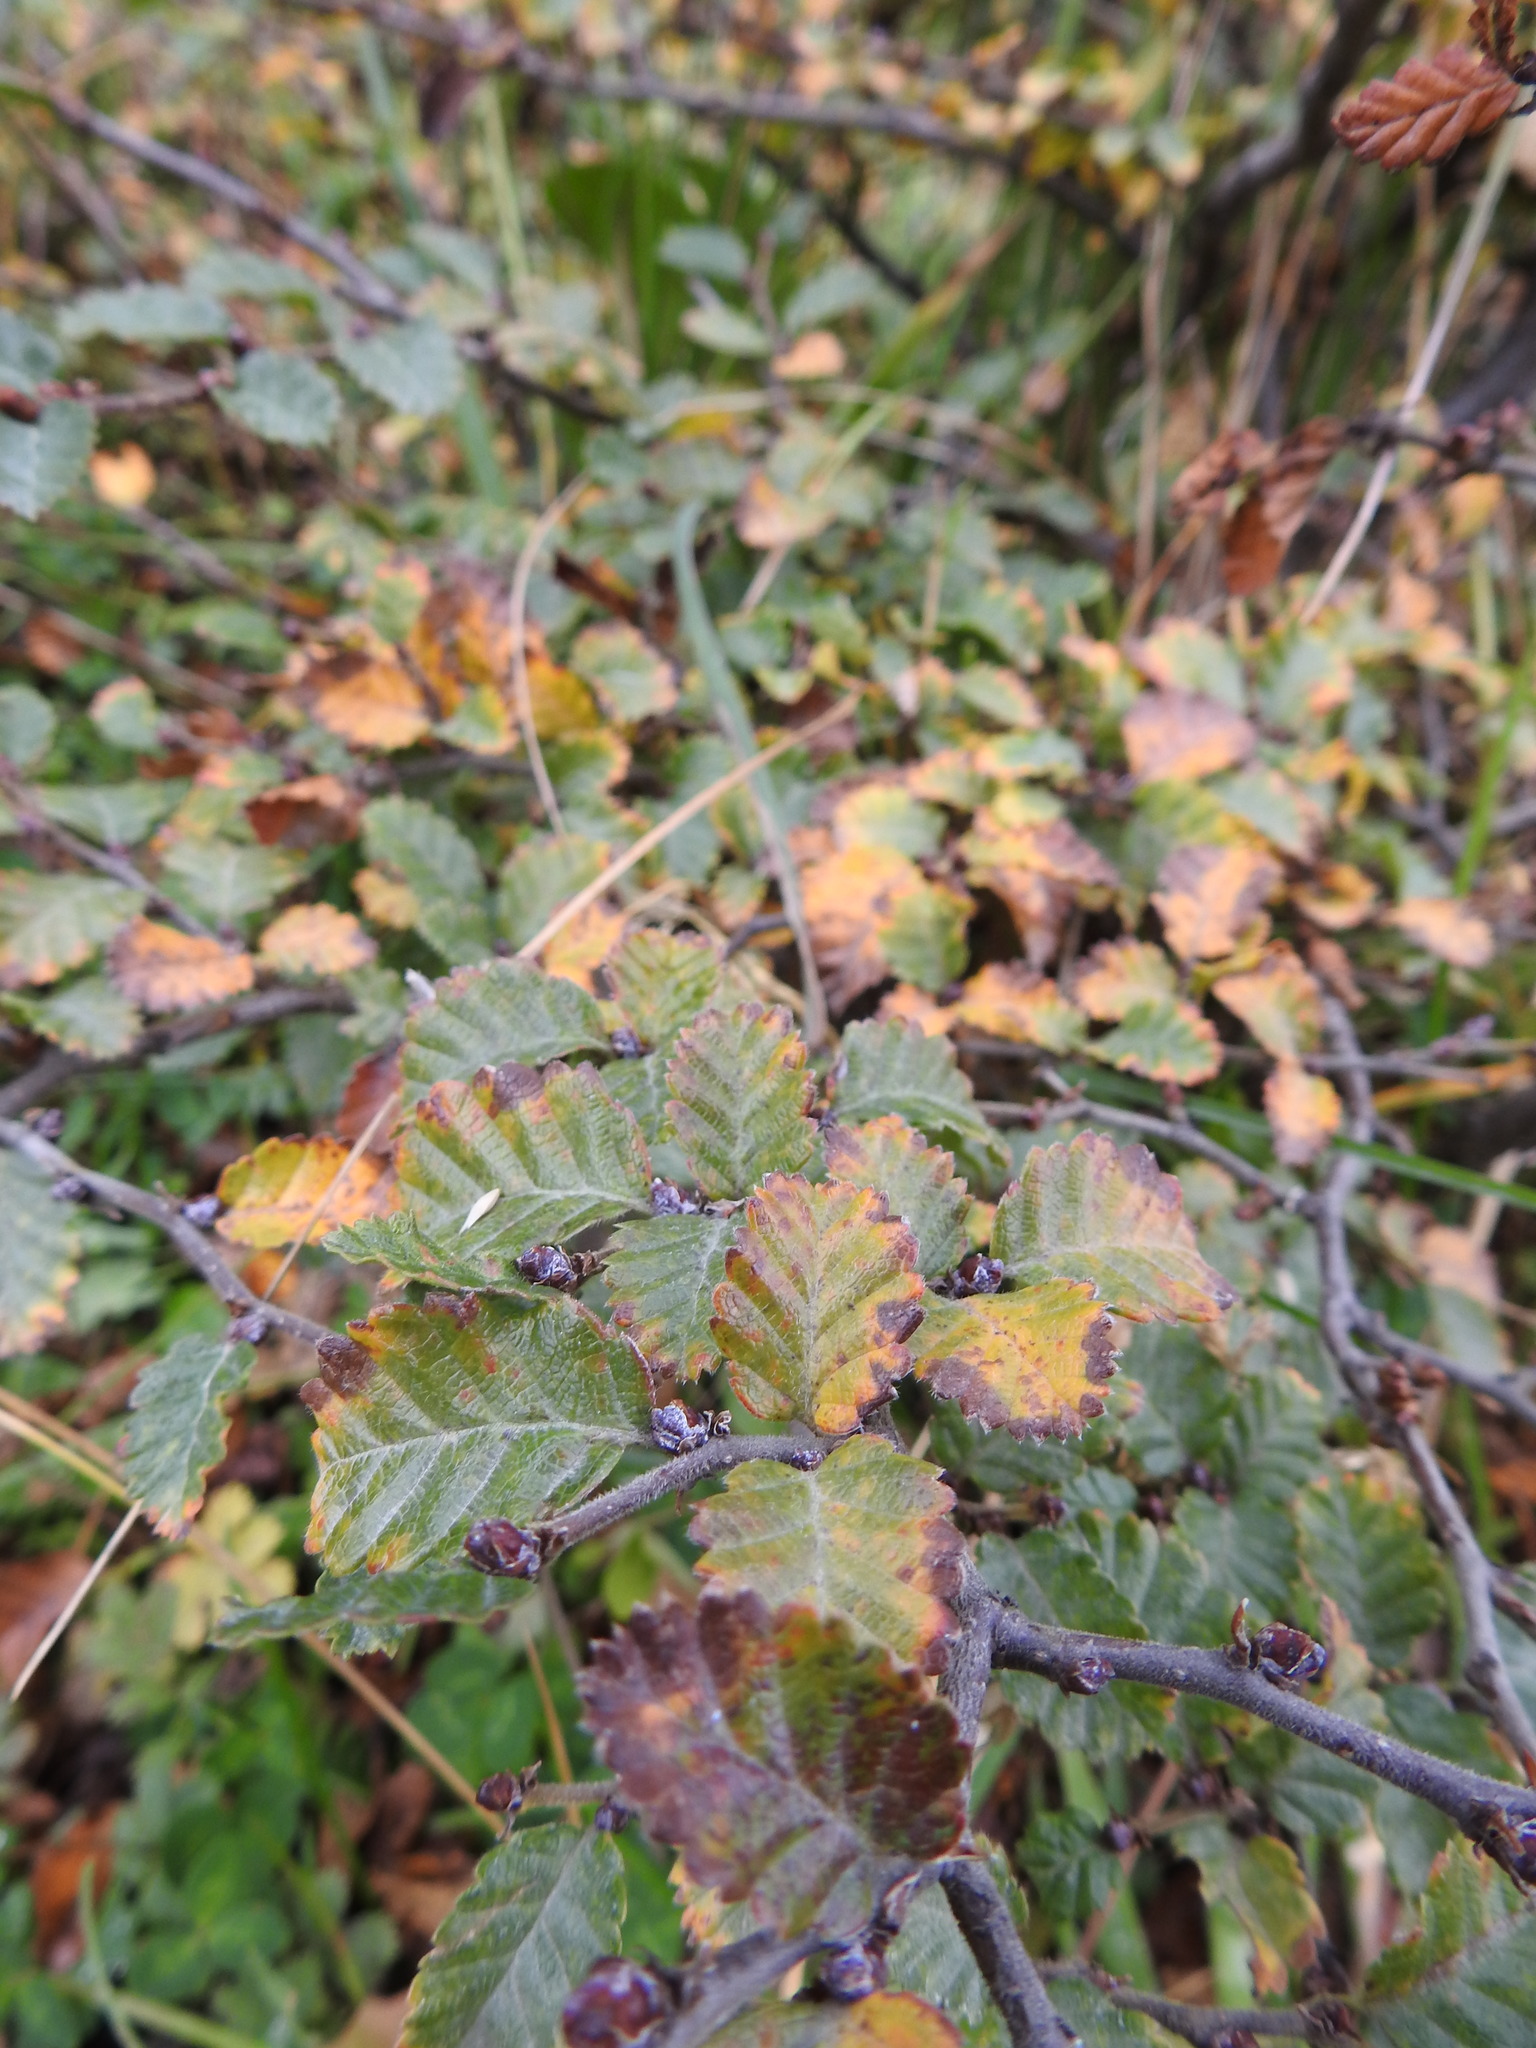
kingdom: Plantae
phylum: Tracheophyta
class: Magnoliopsida
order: Fagales
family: Nothofagaceae
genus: Nothofagus
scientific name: Nothofagus pumilio
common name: Lenga beech
